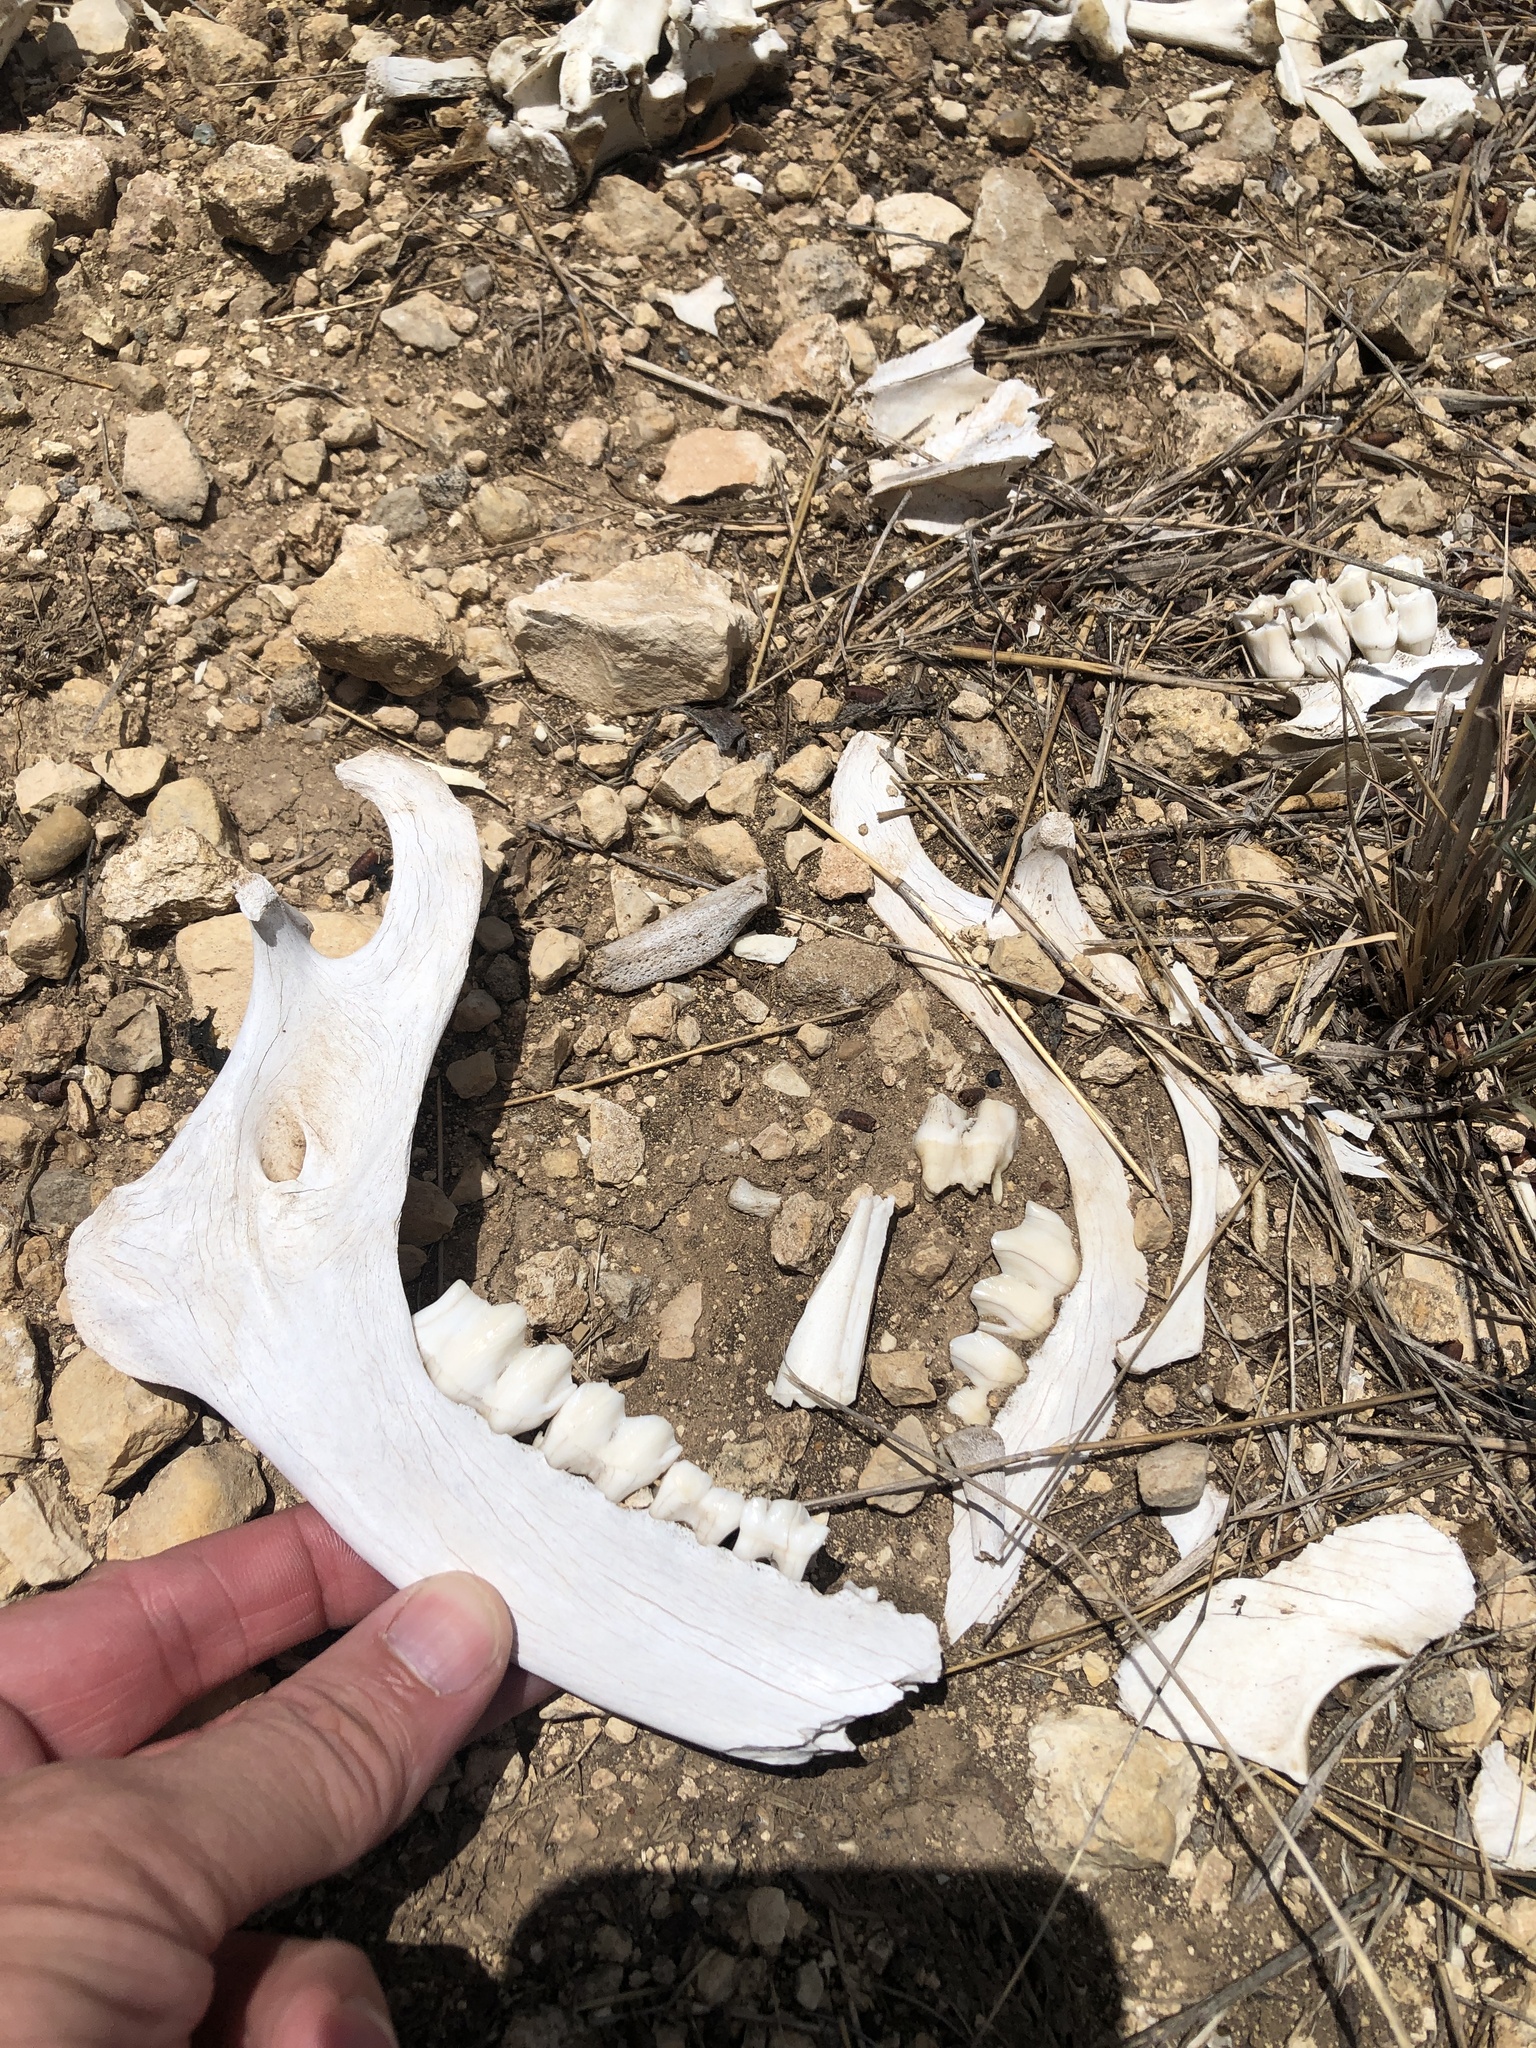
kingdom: Animalia
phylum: Chordata
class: Mammalia
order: Artiodactyla
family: Cervidae
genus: Odocoileus
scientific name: Odocoileus virginianus
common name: White-tailed deer
